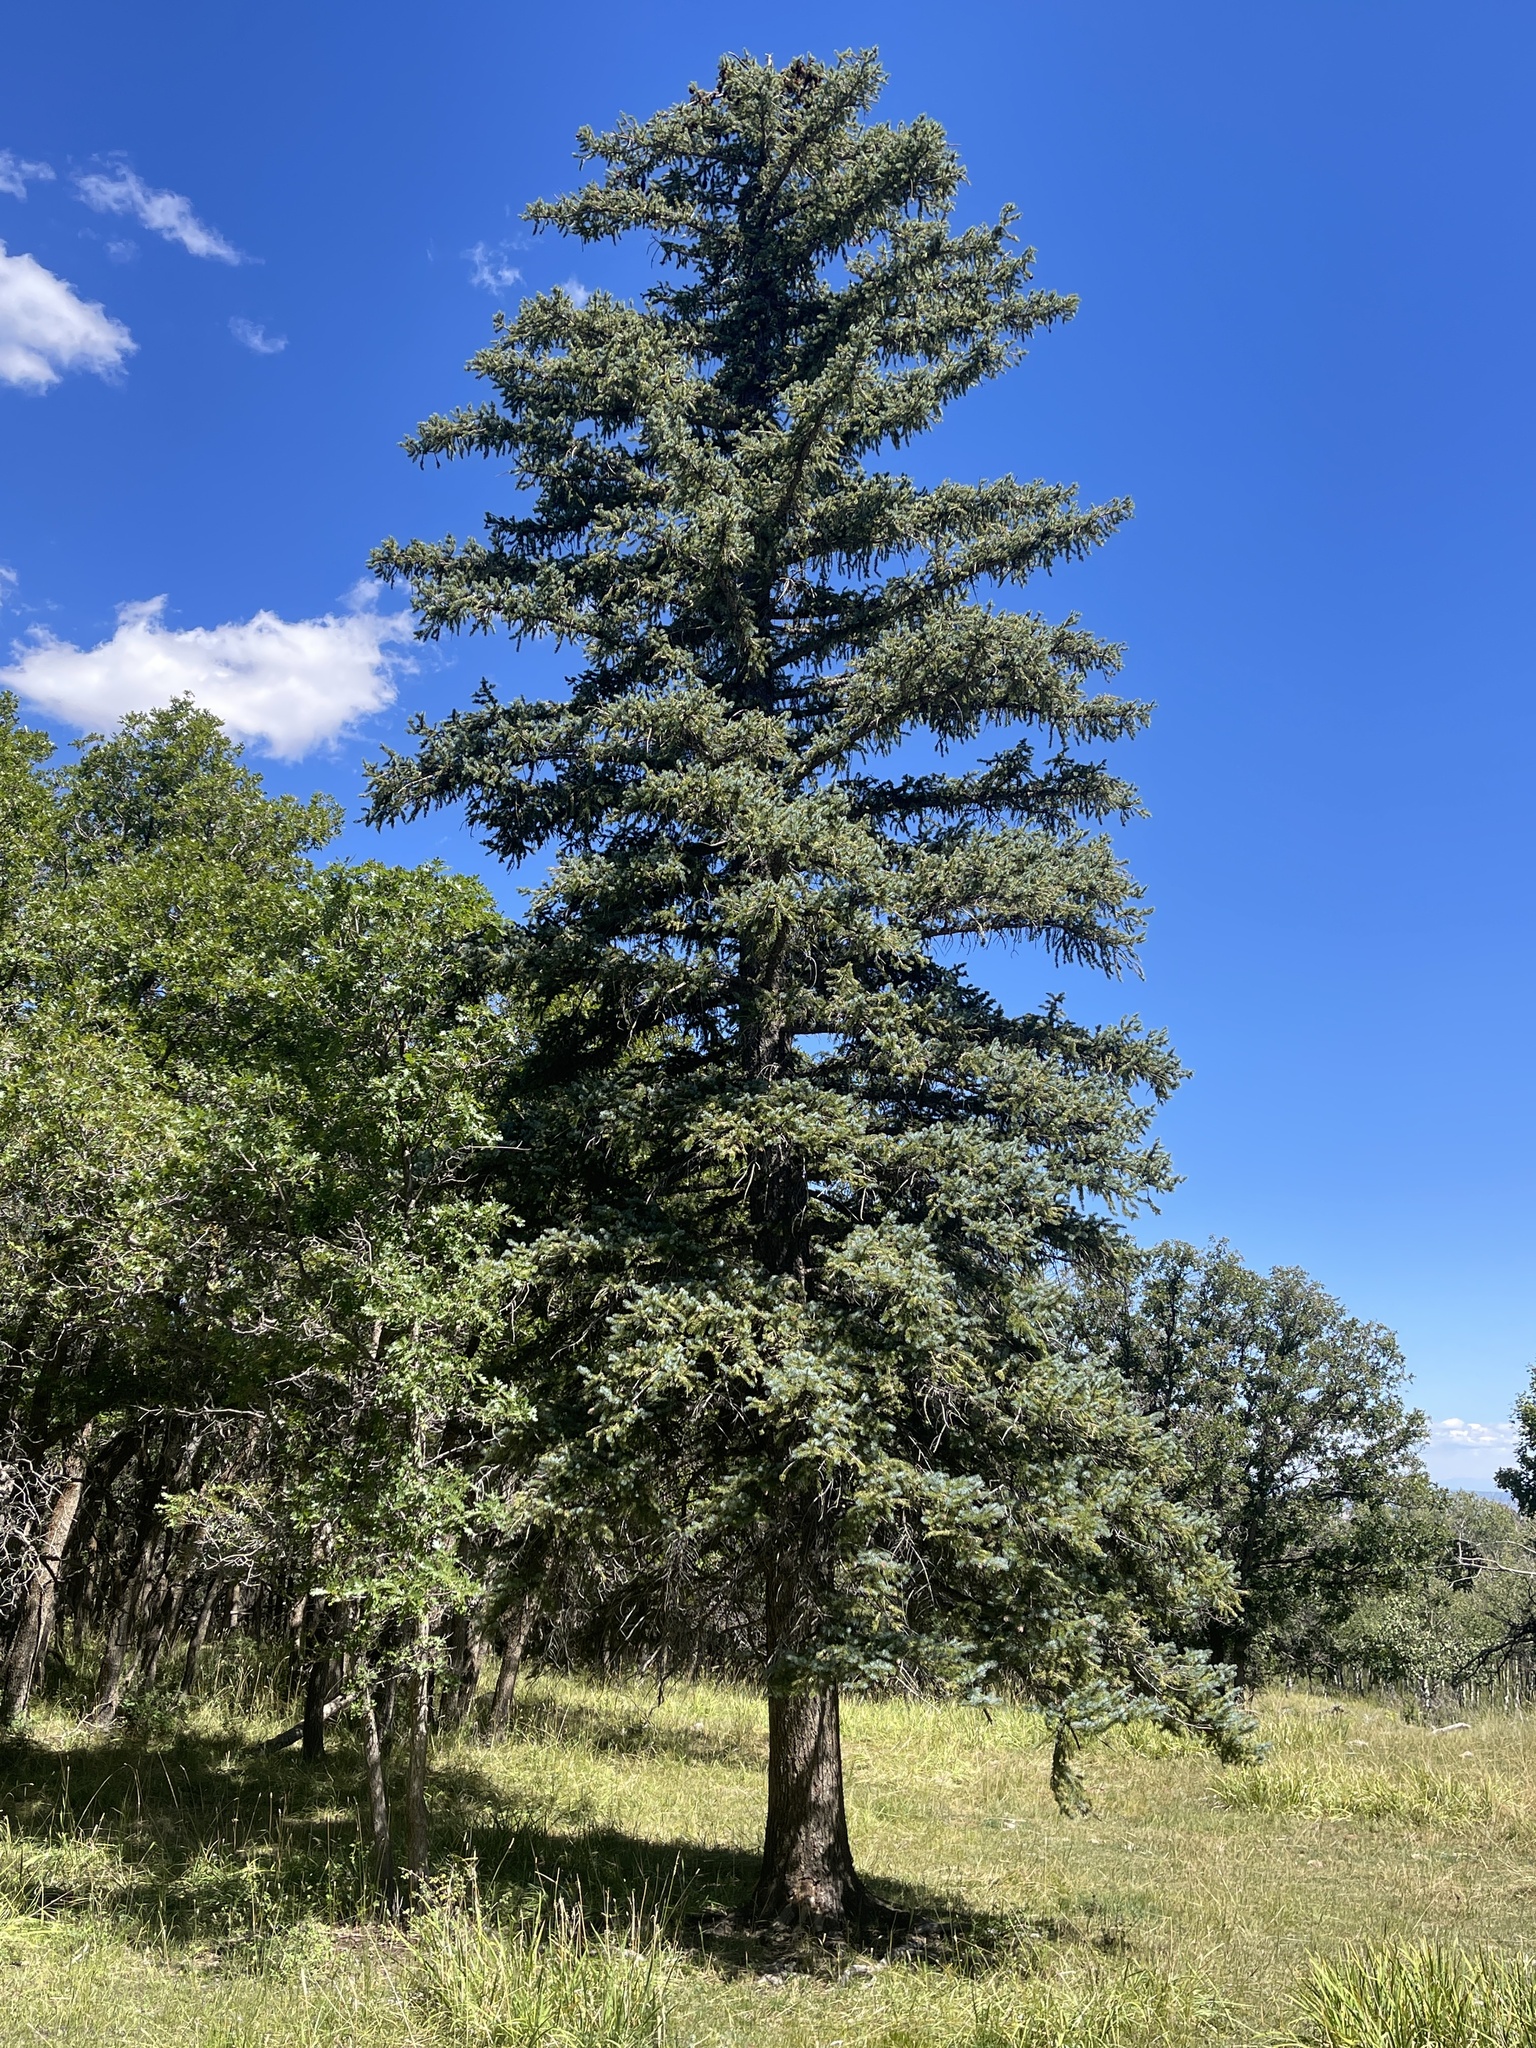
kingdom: Plantae
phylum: Tracheophyta
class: Pinopsida
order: Pinales
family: Pinaceae
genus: Picea
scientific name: Picea pungens
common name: Colorado spruce
